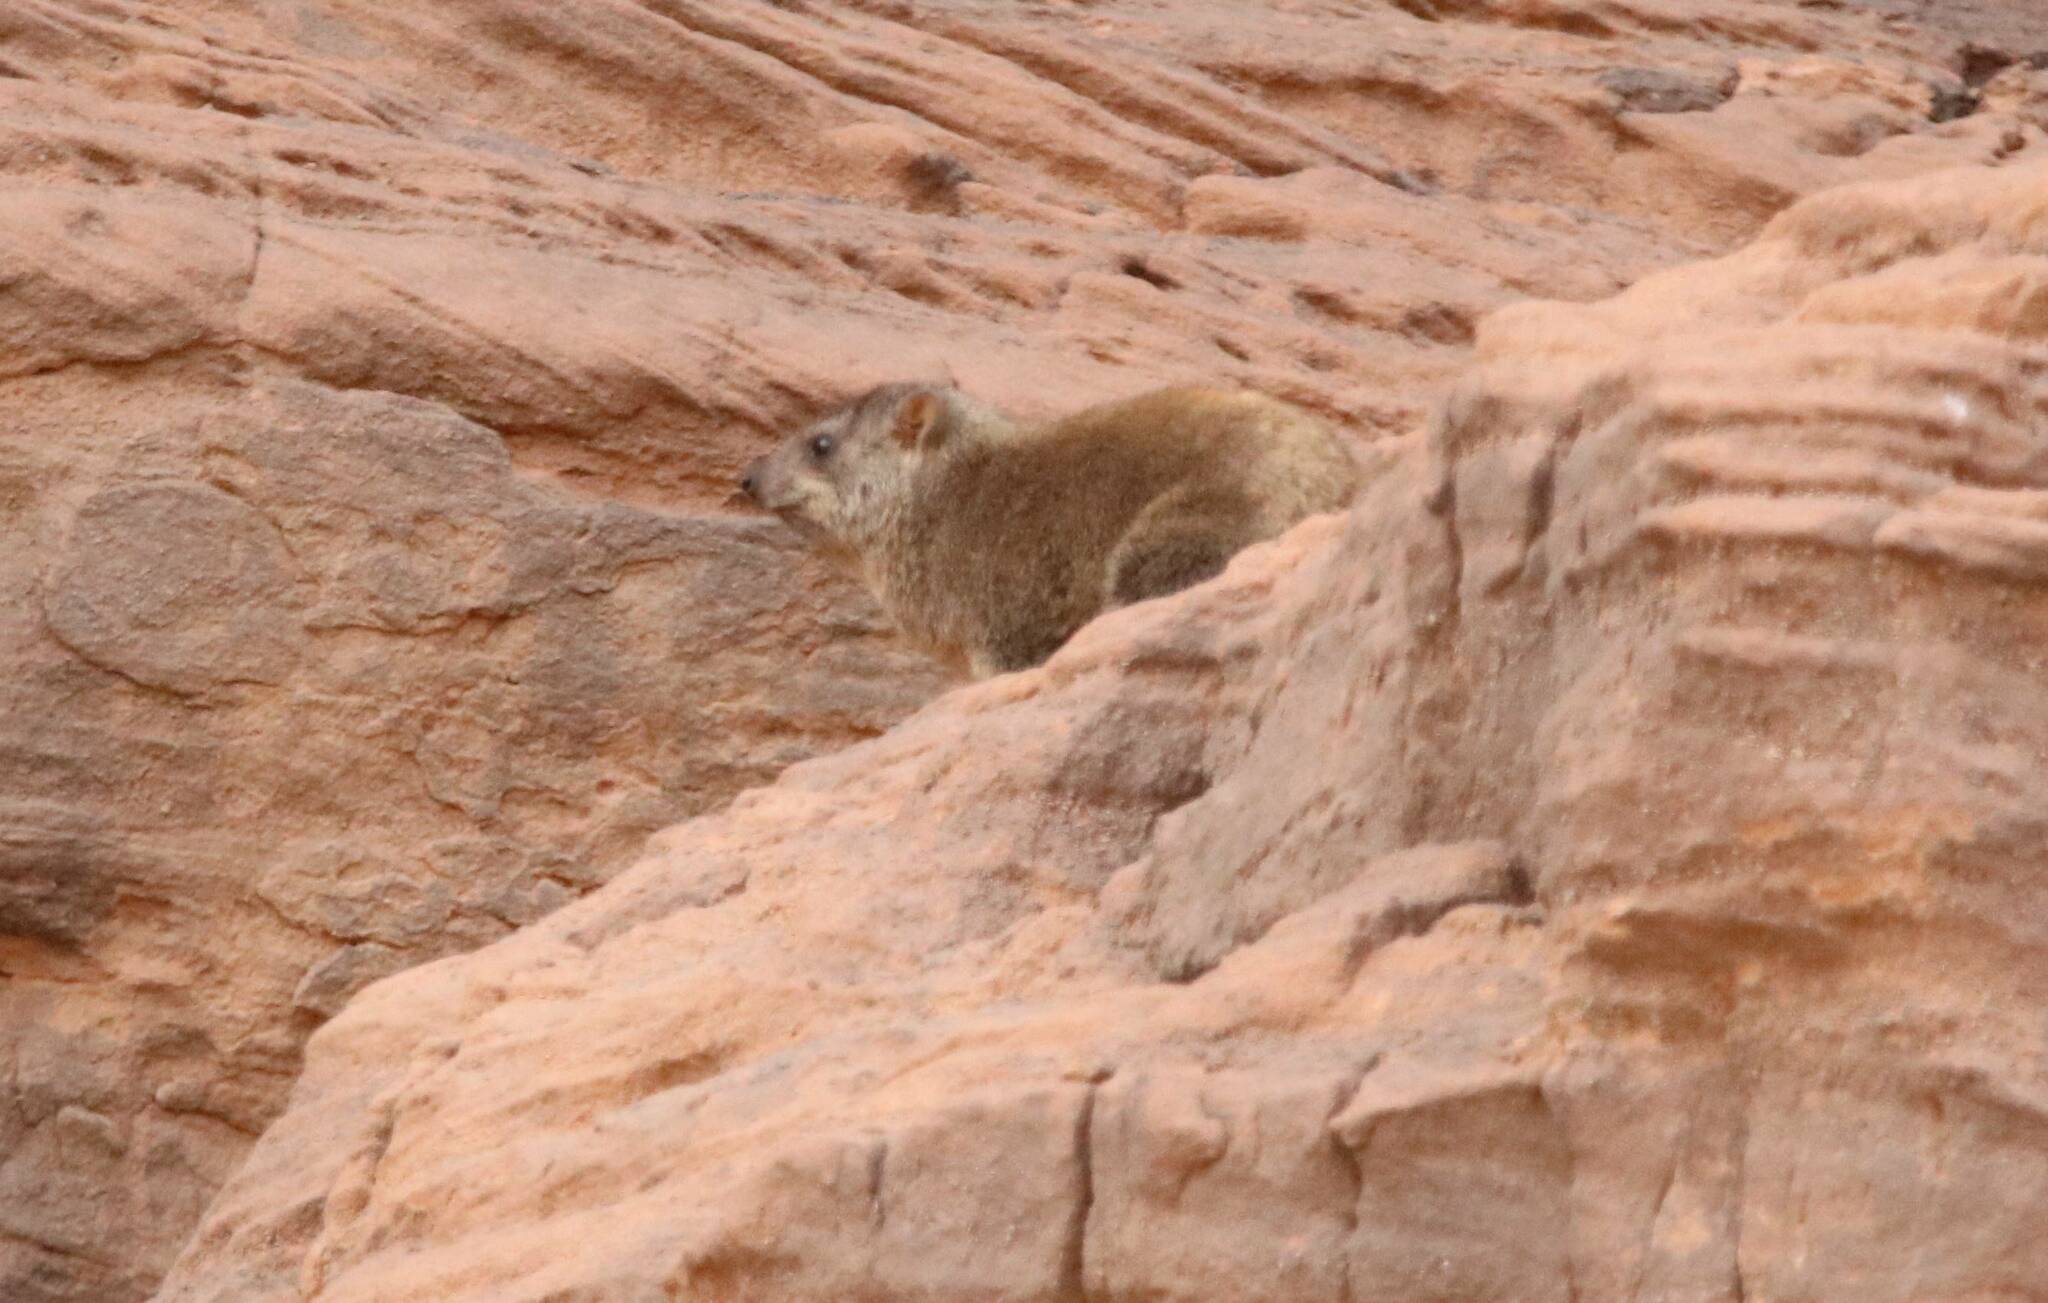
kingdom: Animalia
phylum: Chordata
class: Mammalia
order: Hyracoidea
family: Procaviidae
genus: Procavia
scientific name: Procavia capensis
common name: Rock hyrax
